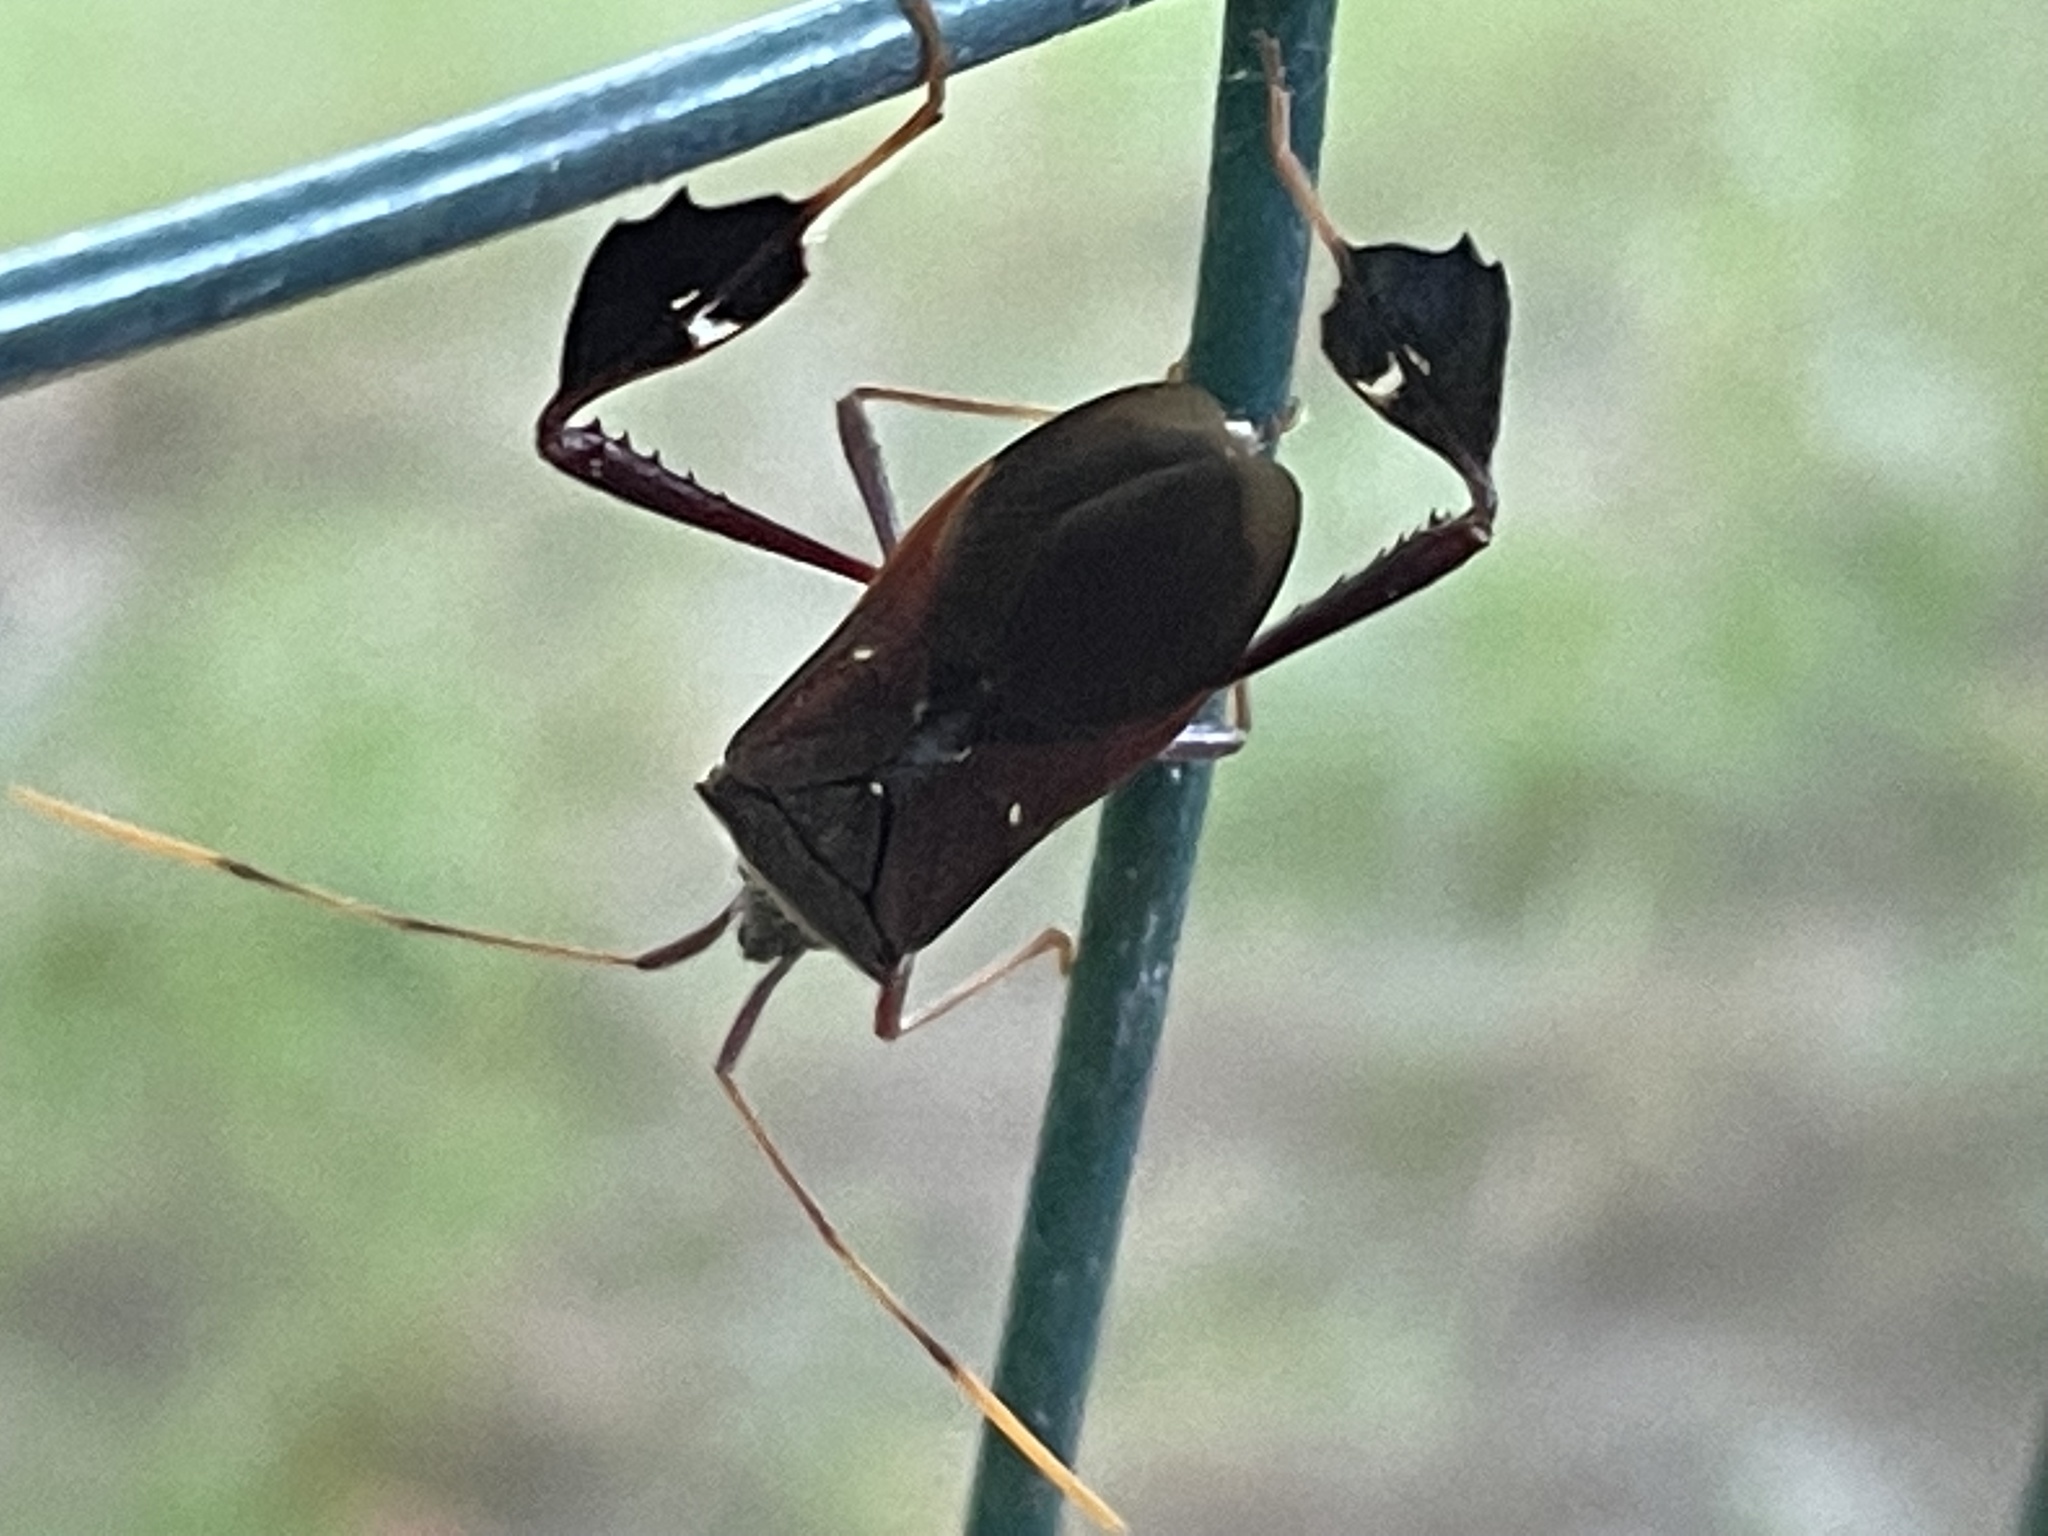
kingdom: Animalia
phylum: Arthropoda
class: Insecta
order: Hemiptera
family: Coreidae
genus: Leptoglossus
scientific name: Leptoglossus oppositus
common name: Northern leaf-footed bug
